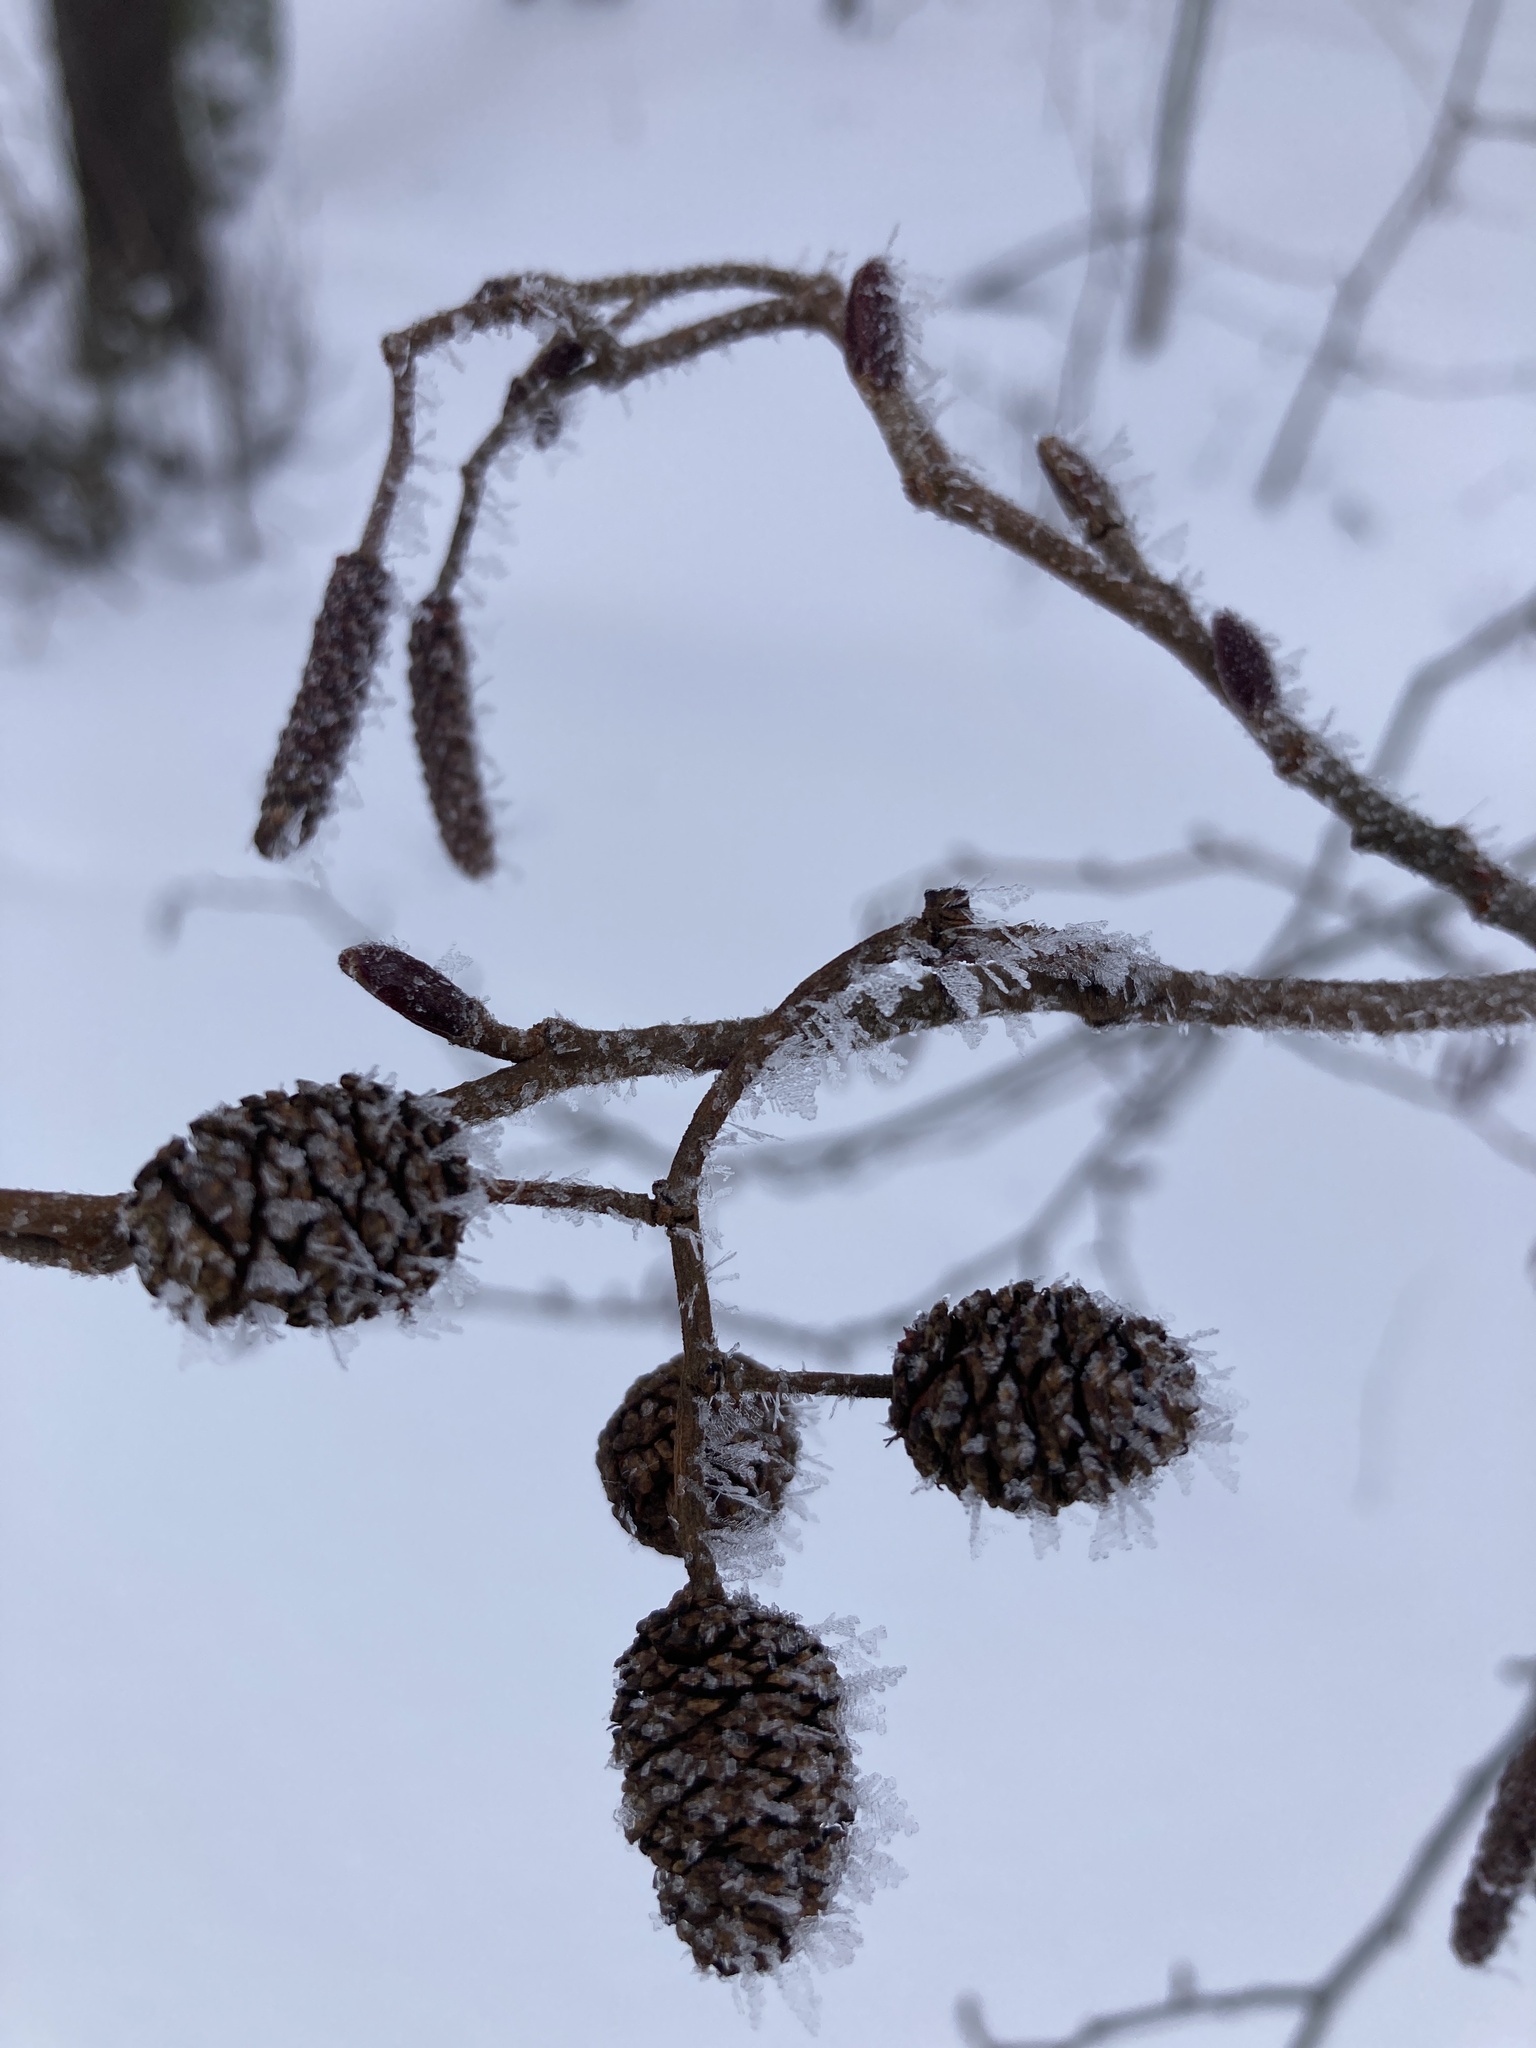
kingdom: Plantae
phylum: Tracheophyta
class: Magnoliopsida
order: Fagales
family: Betulaceae
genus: Alnus
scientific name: Alnus glutinosa
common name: Black alder
